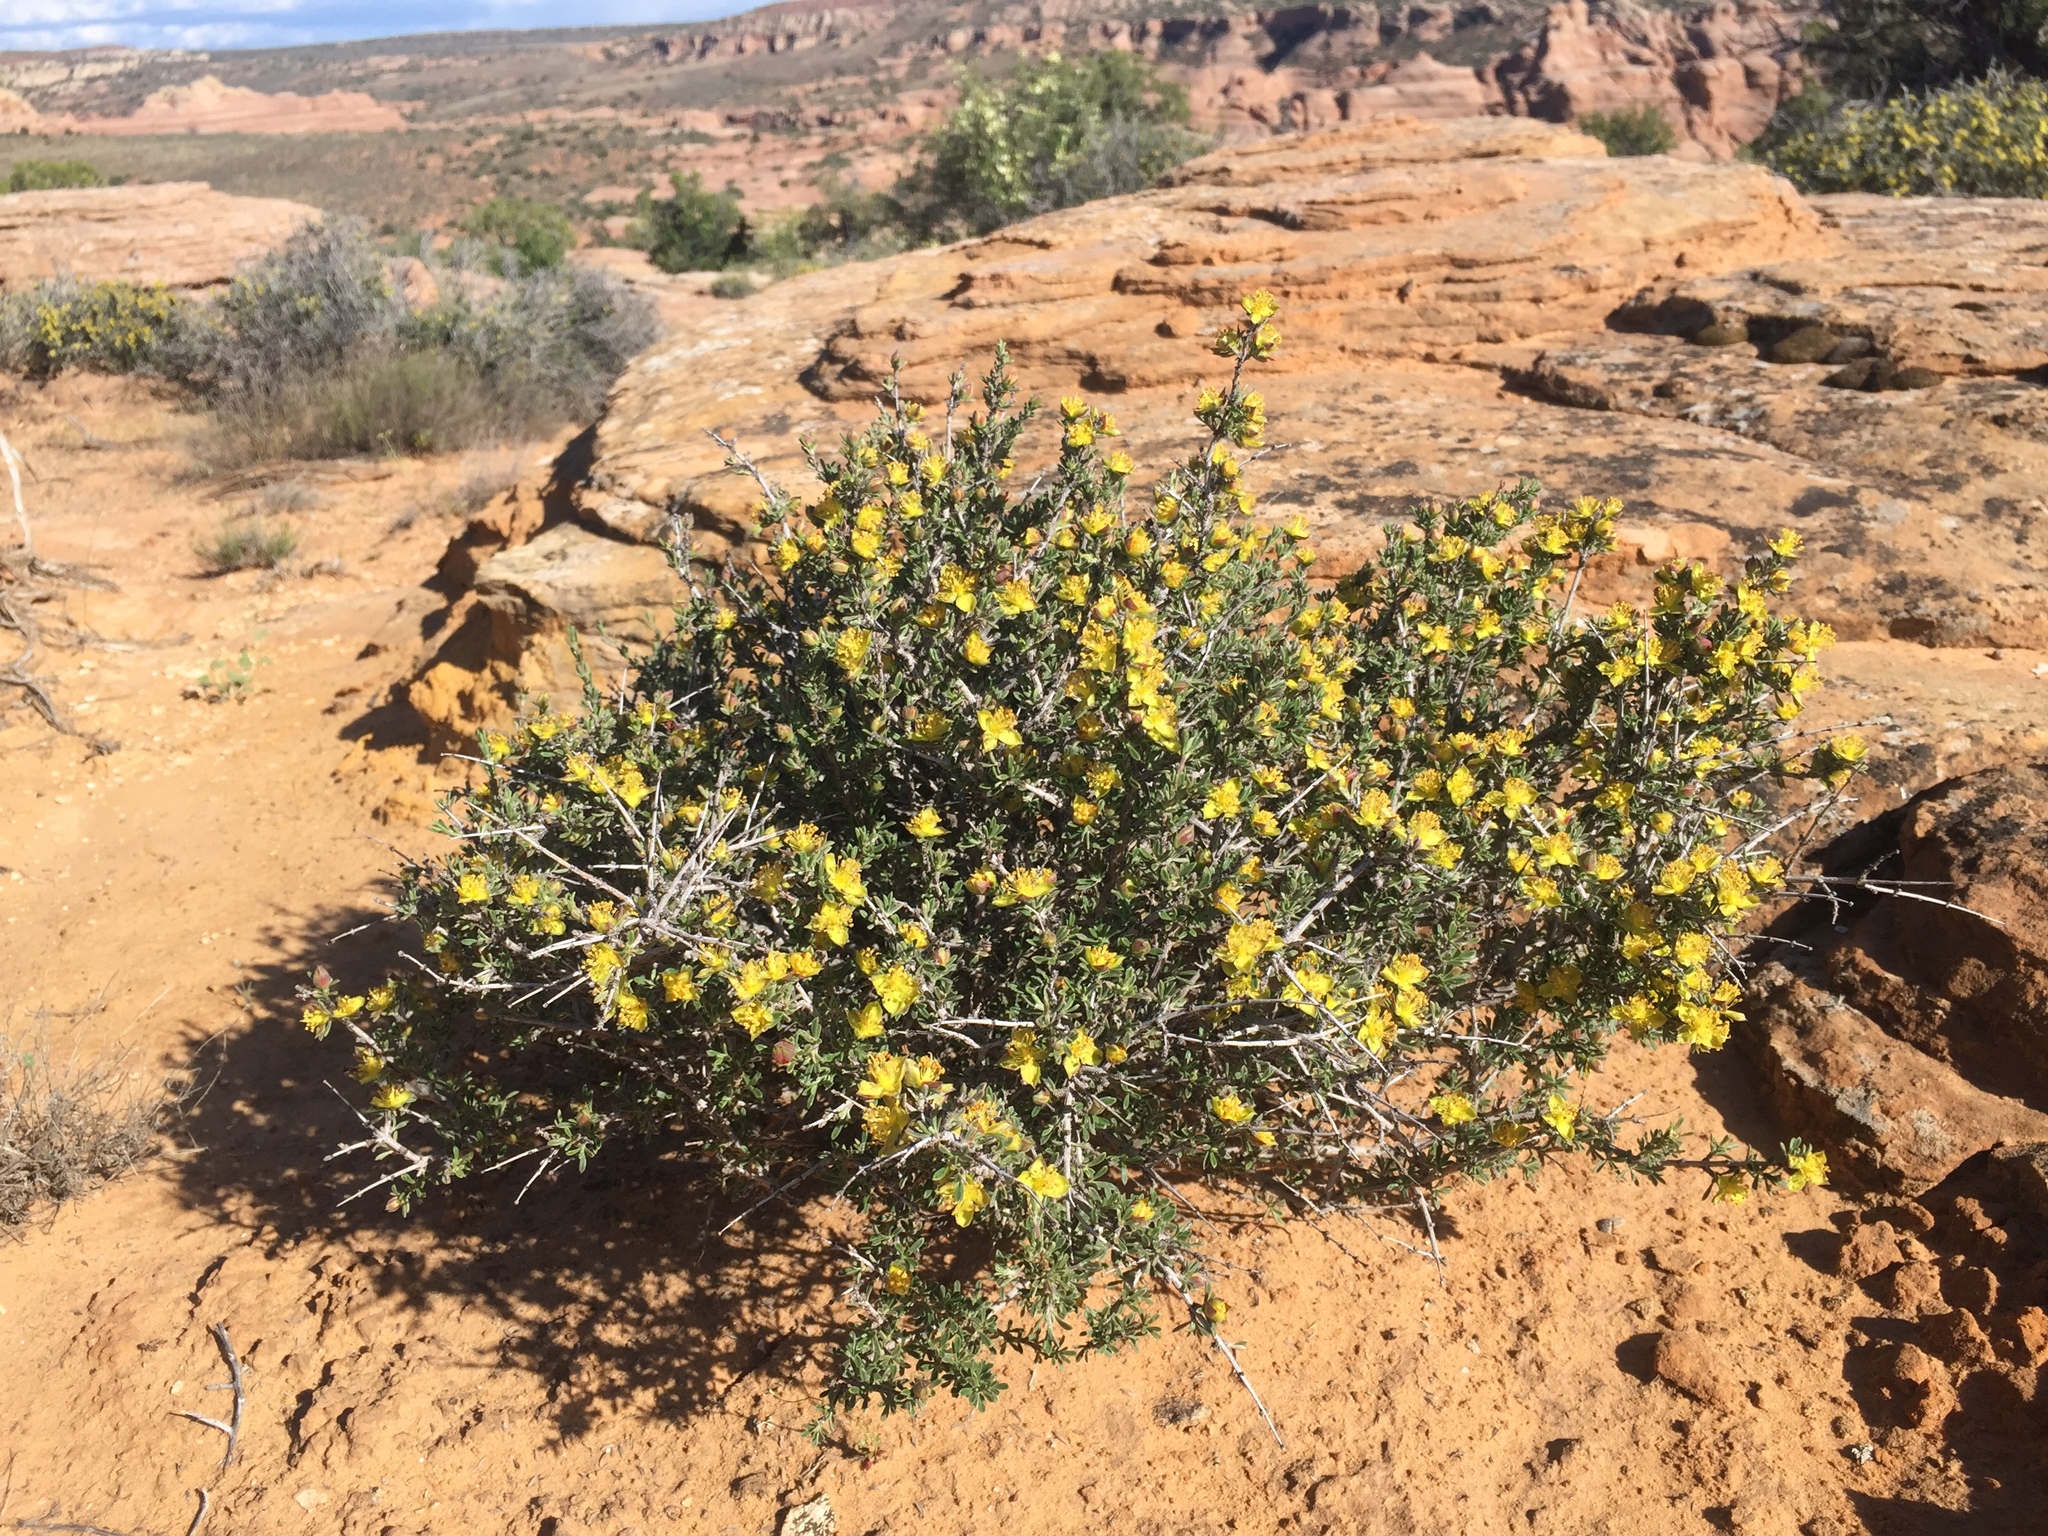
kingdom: Plantae
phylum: Tracheophyta
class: Magnoliopsida
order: Rosales
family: Rosaceae
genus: Coleogyne
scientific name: Coleogyne ramosissima
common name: Blackbrush
